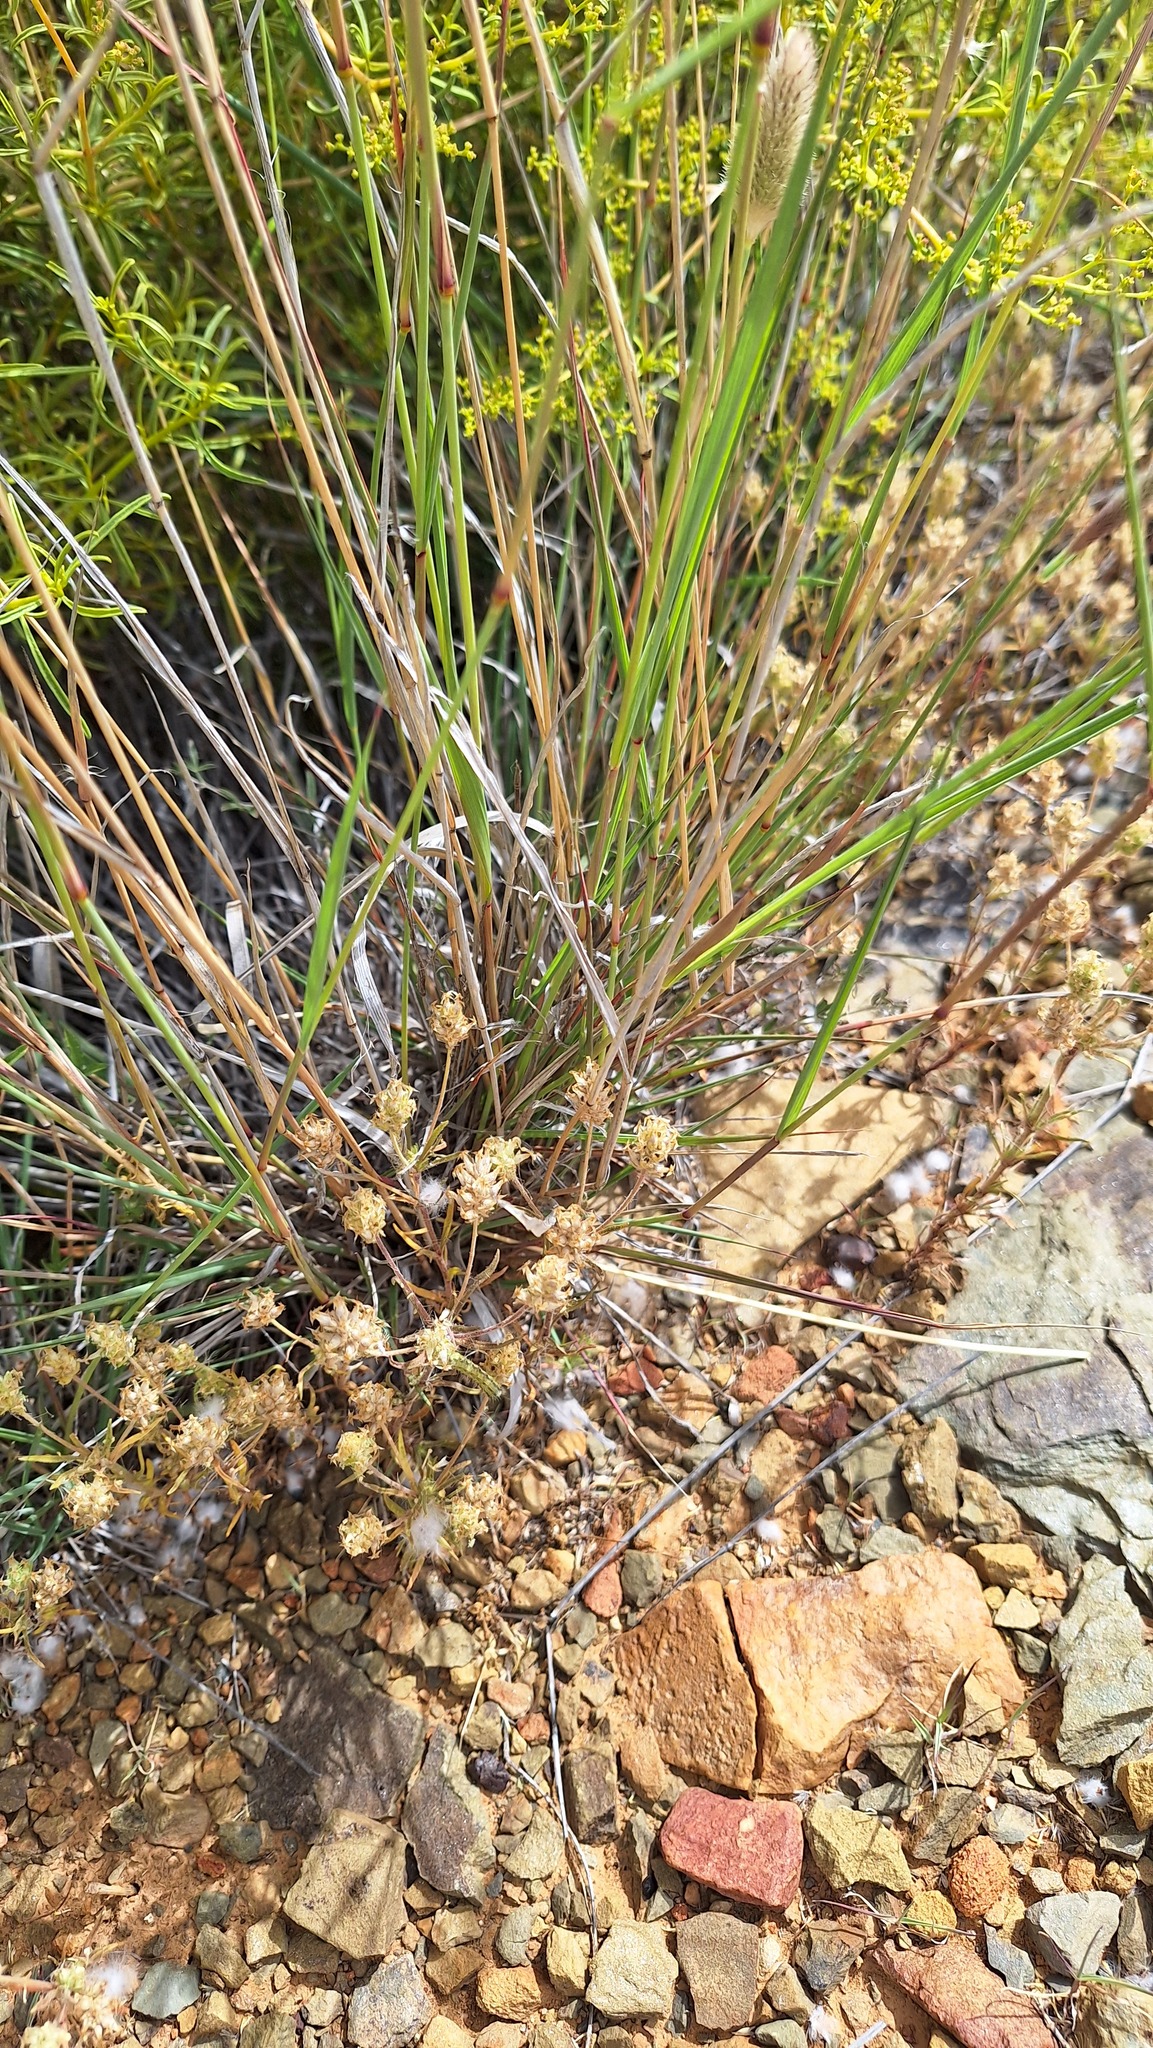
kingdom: Plantae
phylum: Tracheophyta
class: Liliopsida
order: Poales
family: Poaceae
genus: Fingerhuthia
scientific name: Fingerhuthia africana
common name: Zulu fescue
